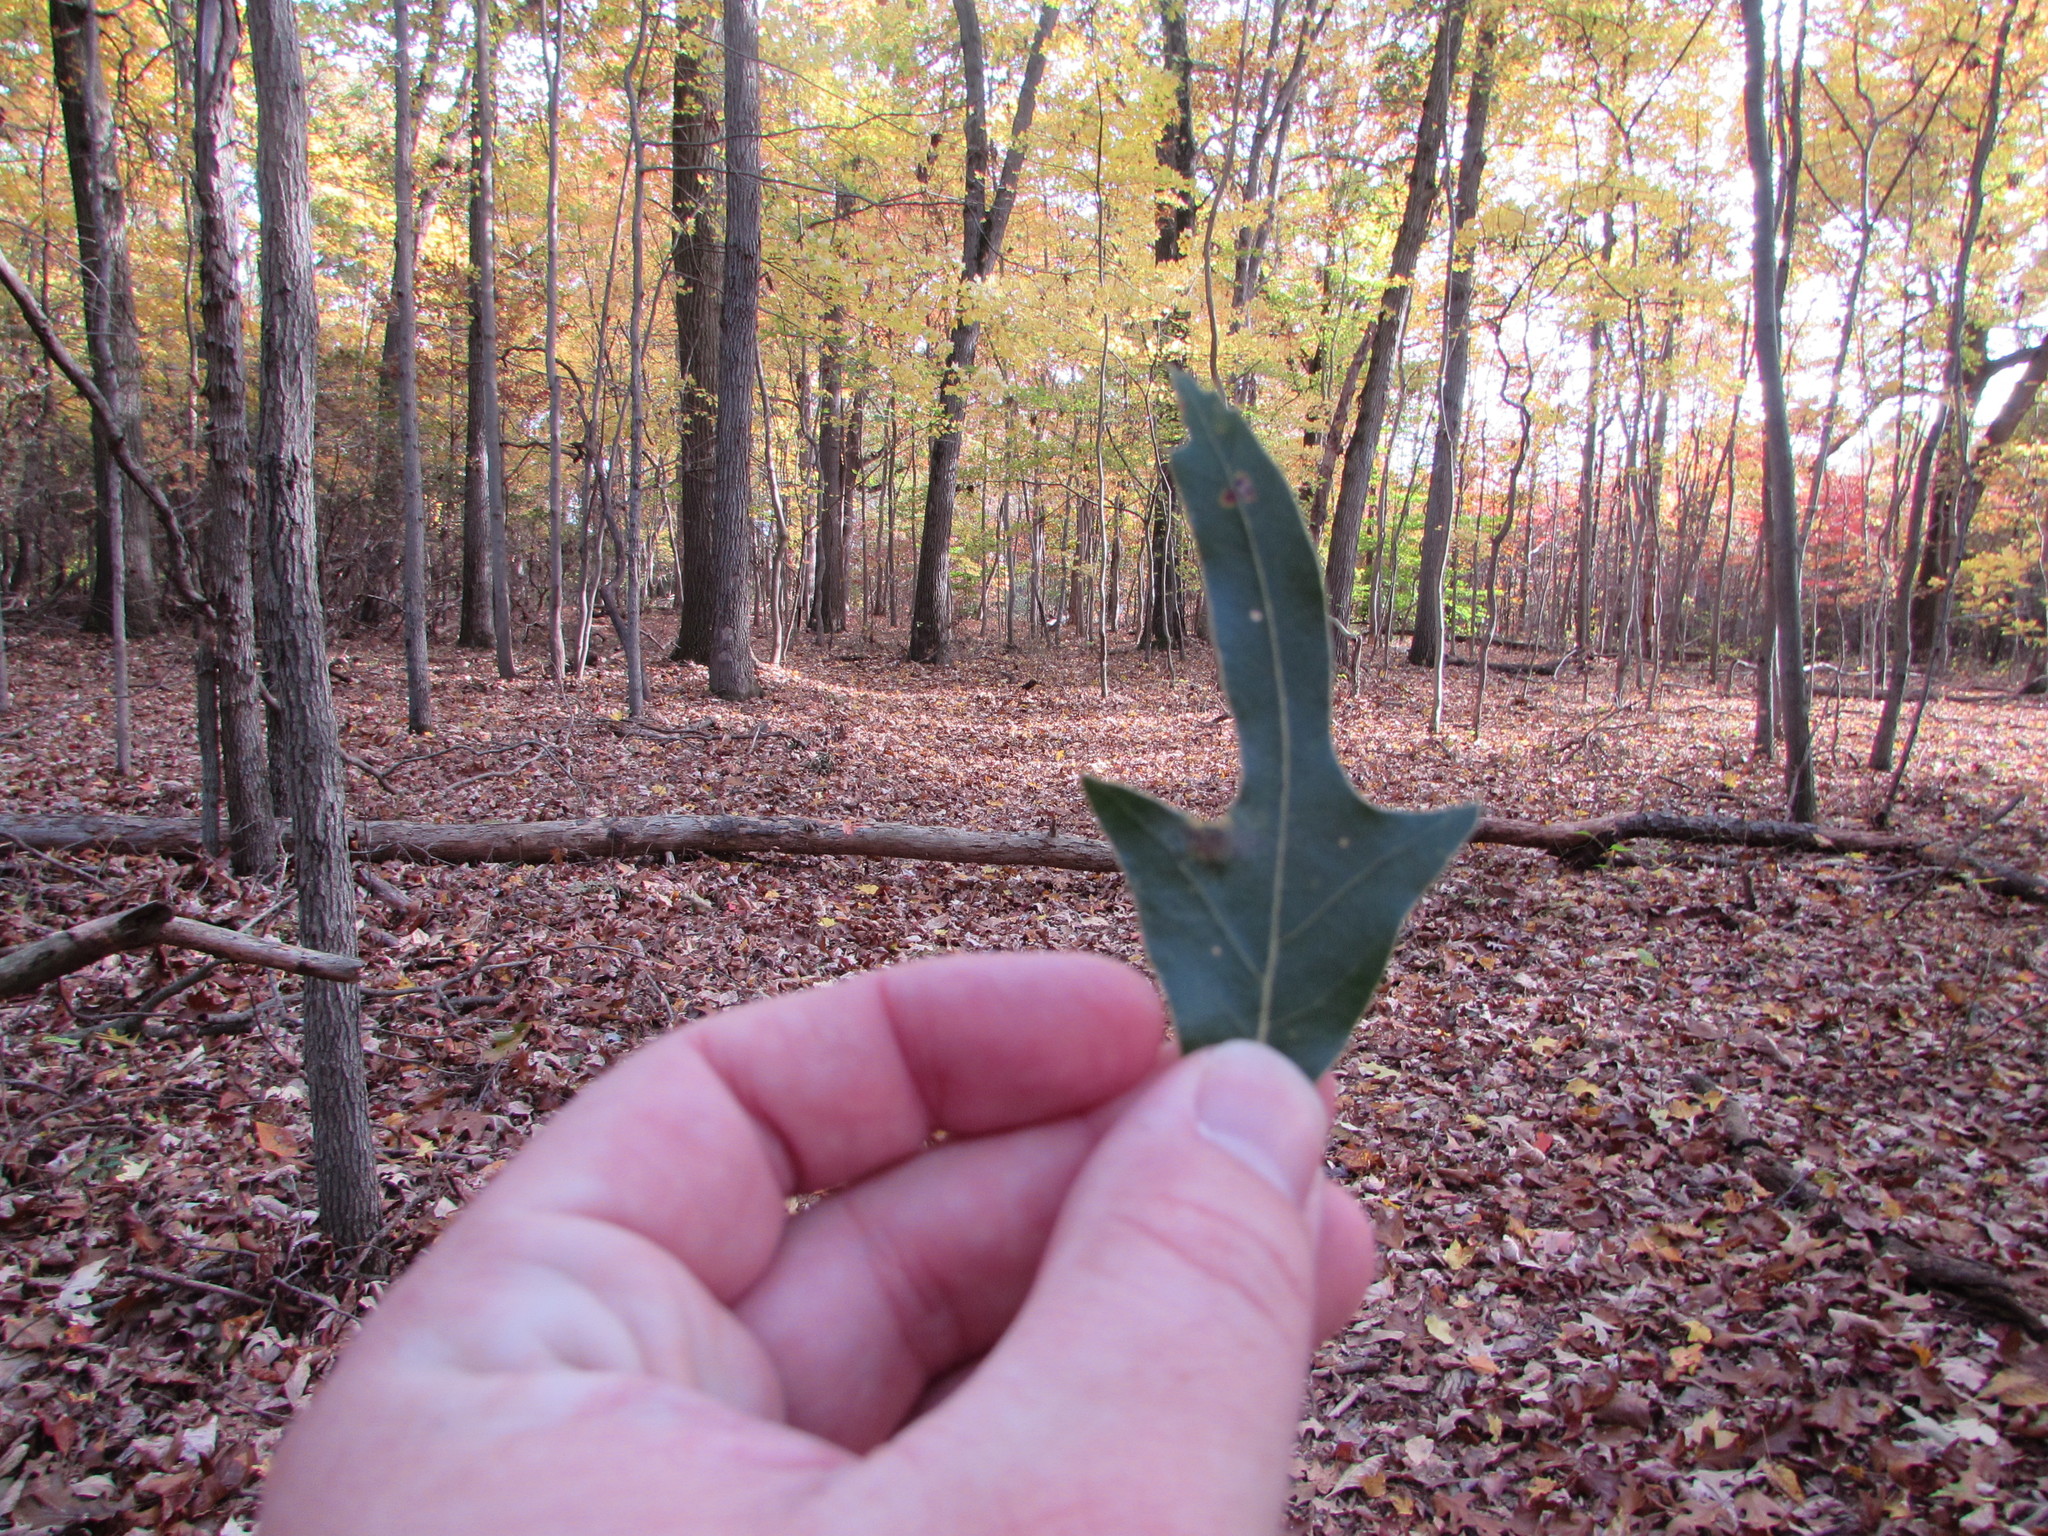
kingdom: Plantae
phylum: Tracheophyta
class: Magnoliopsida
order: Fagales
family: Fagaceae
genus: Quercus
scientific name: Quercus falcata
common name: Southern red oak
